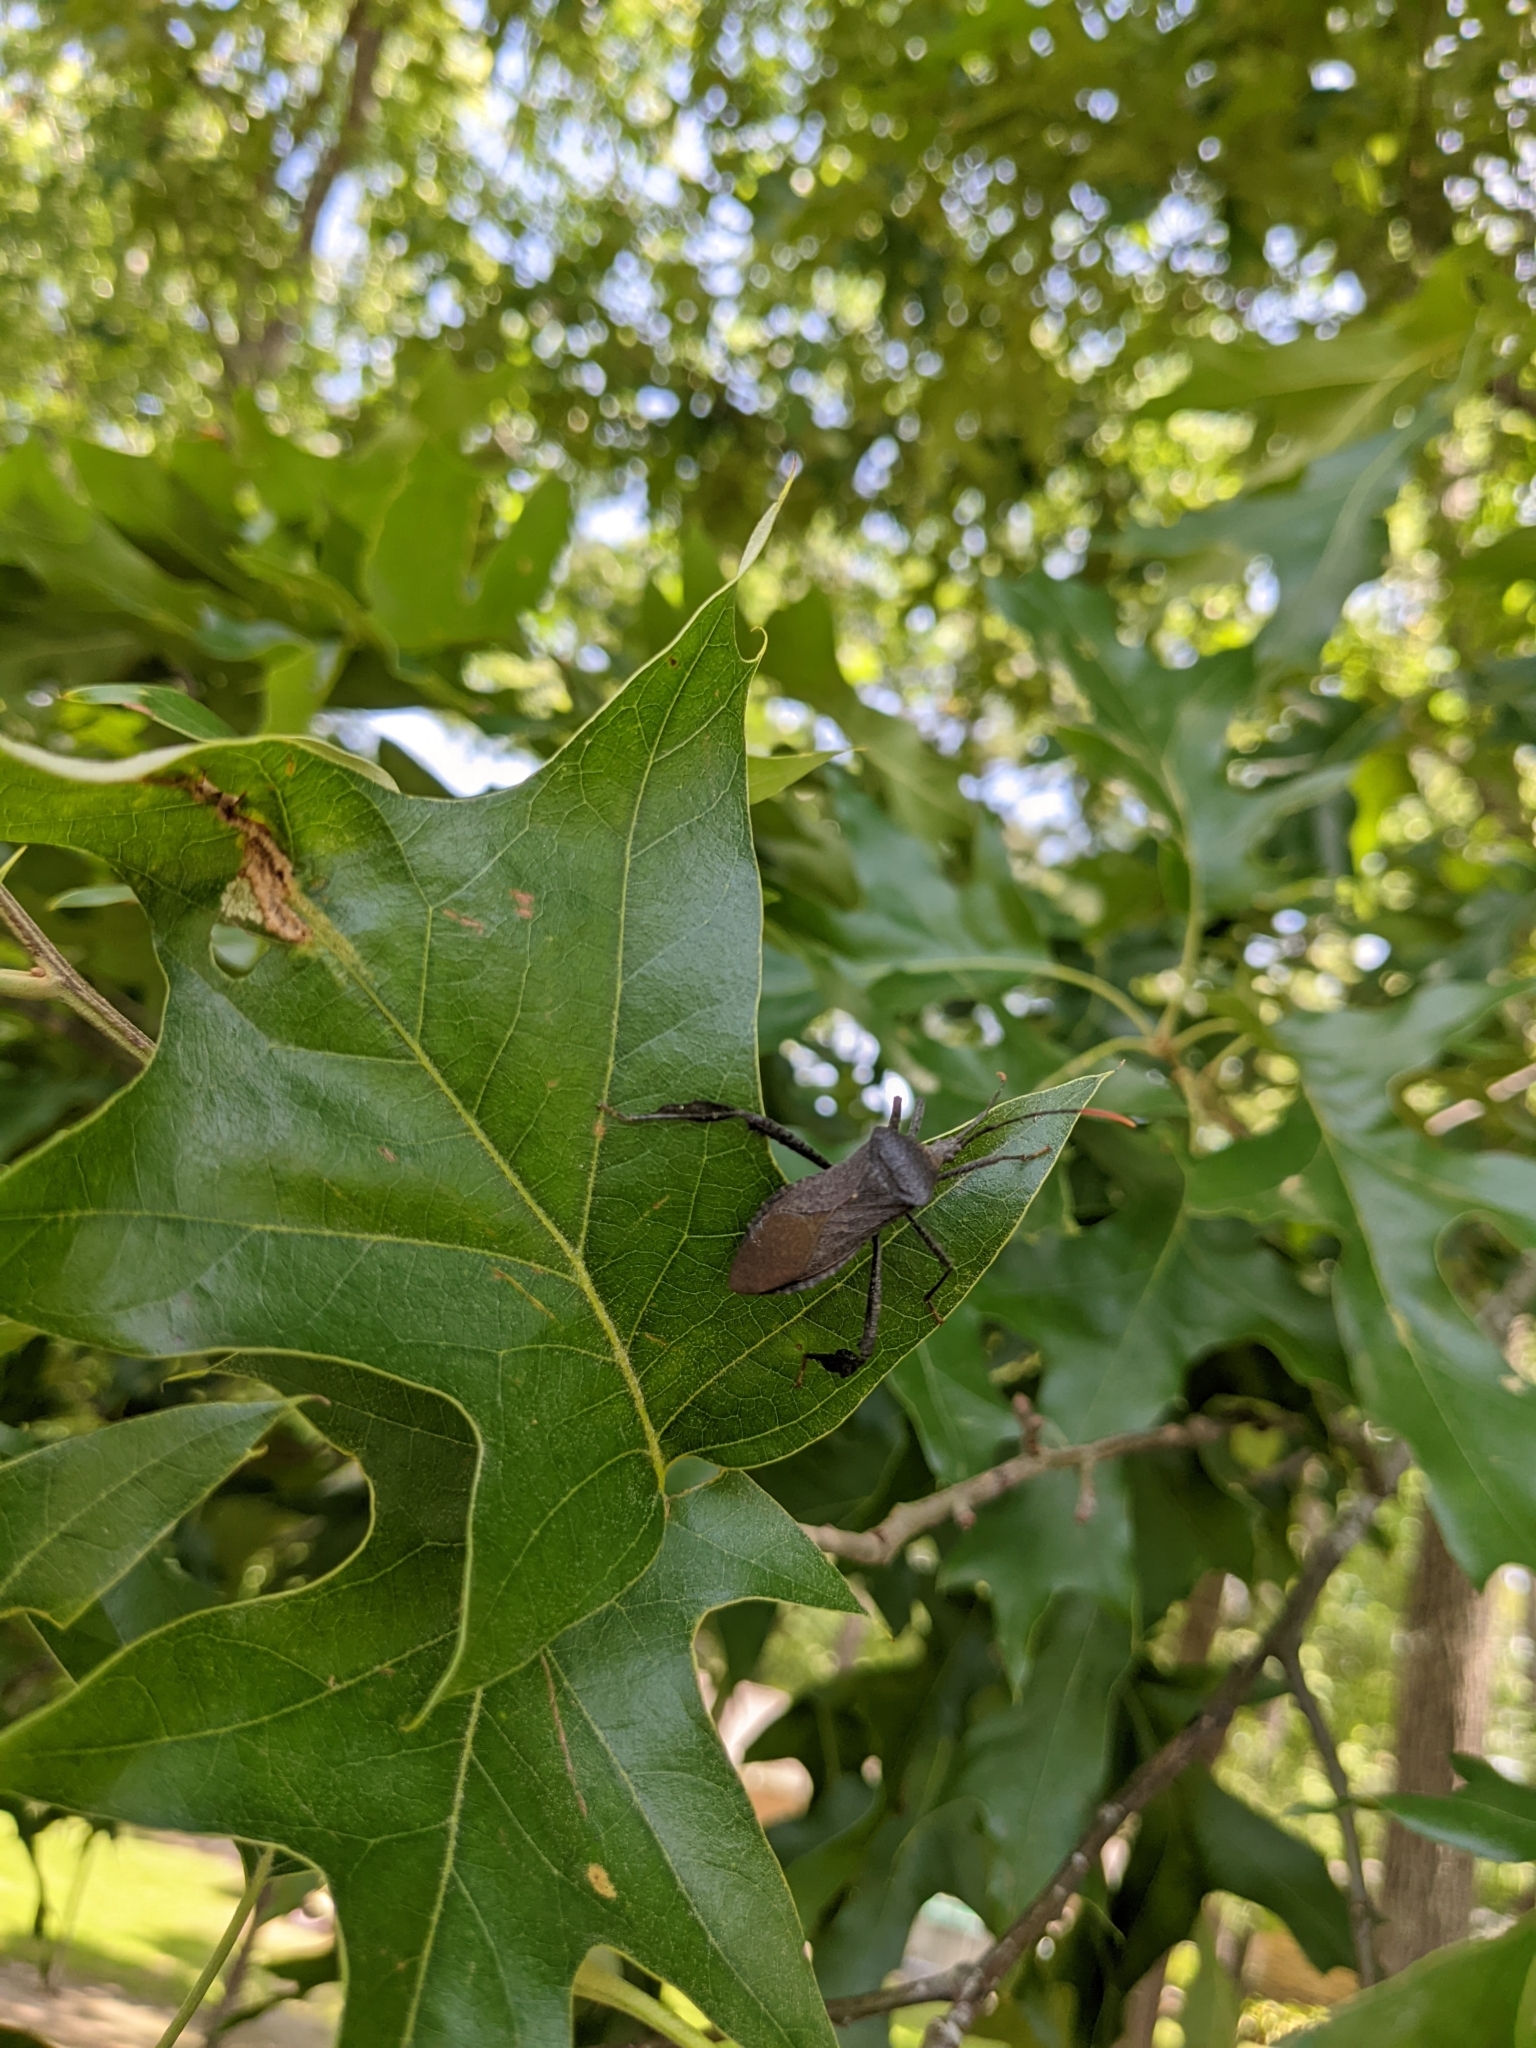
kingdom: Animalia
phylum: Arthropoda
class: Insecta
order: Hemiptera
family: Coreidae
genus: Acanthocephala
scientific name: Acanthocephala terminalis
